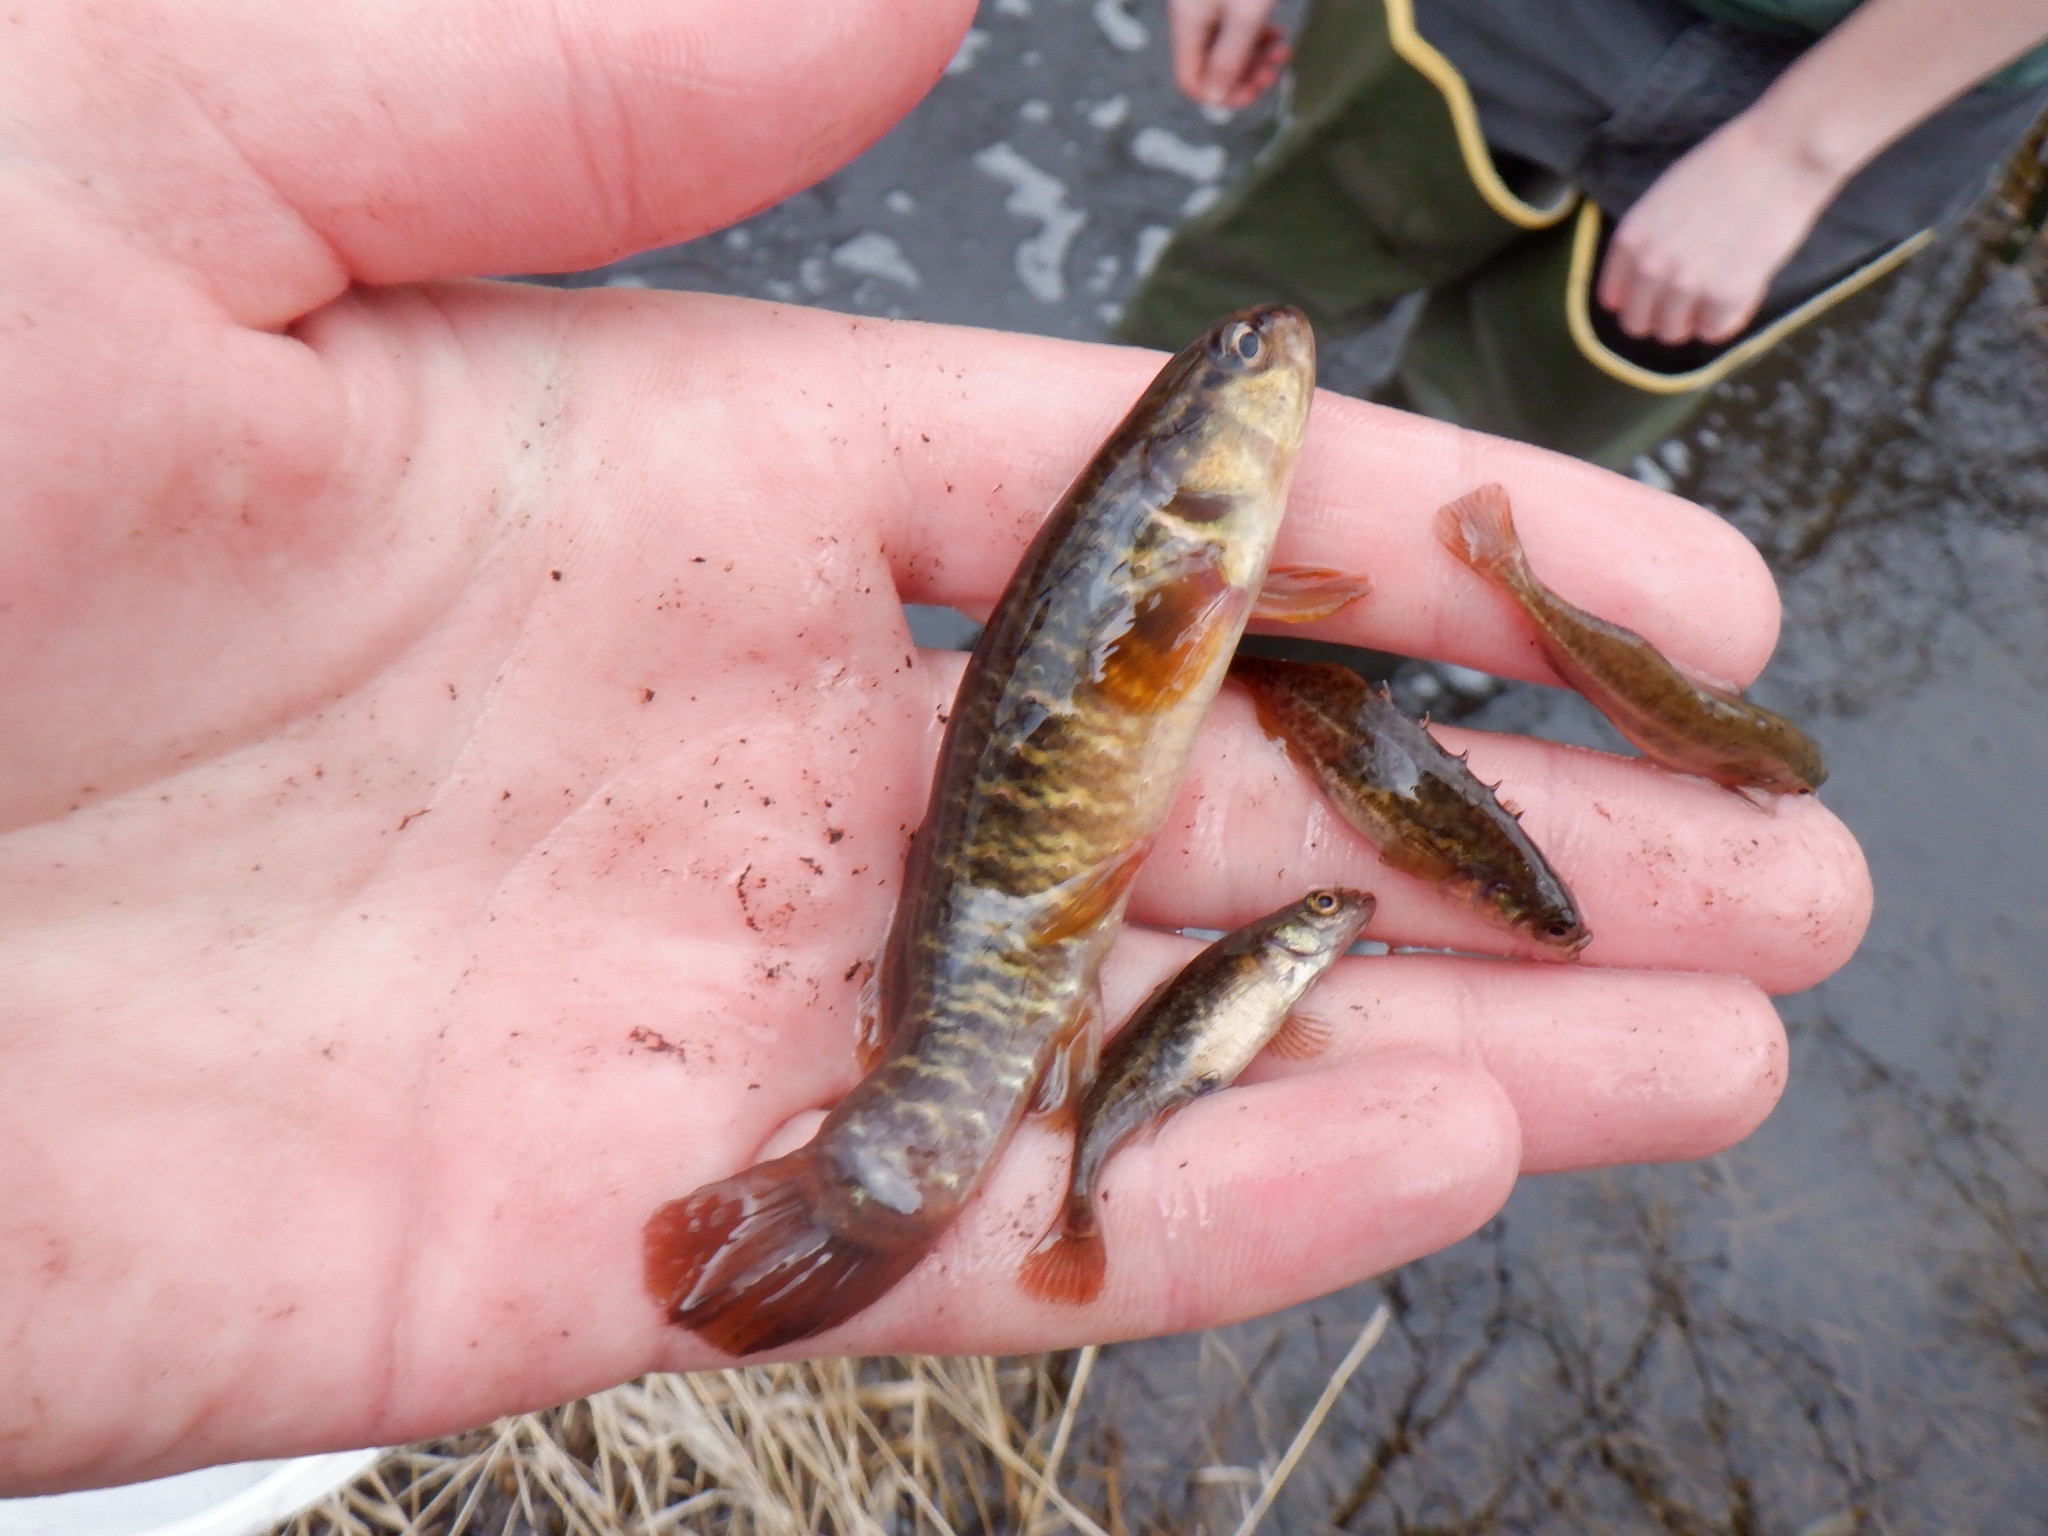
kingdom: Animalia
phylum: Chordata
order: Esociformes
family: Umbridae
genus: Umbra
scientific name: Umbra limi
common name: Central mudminnow
